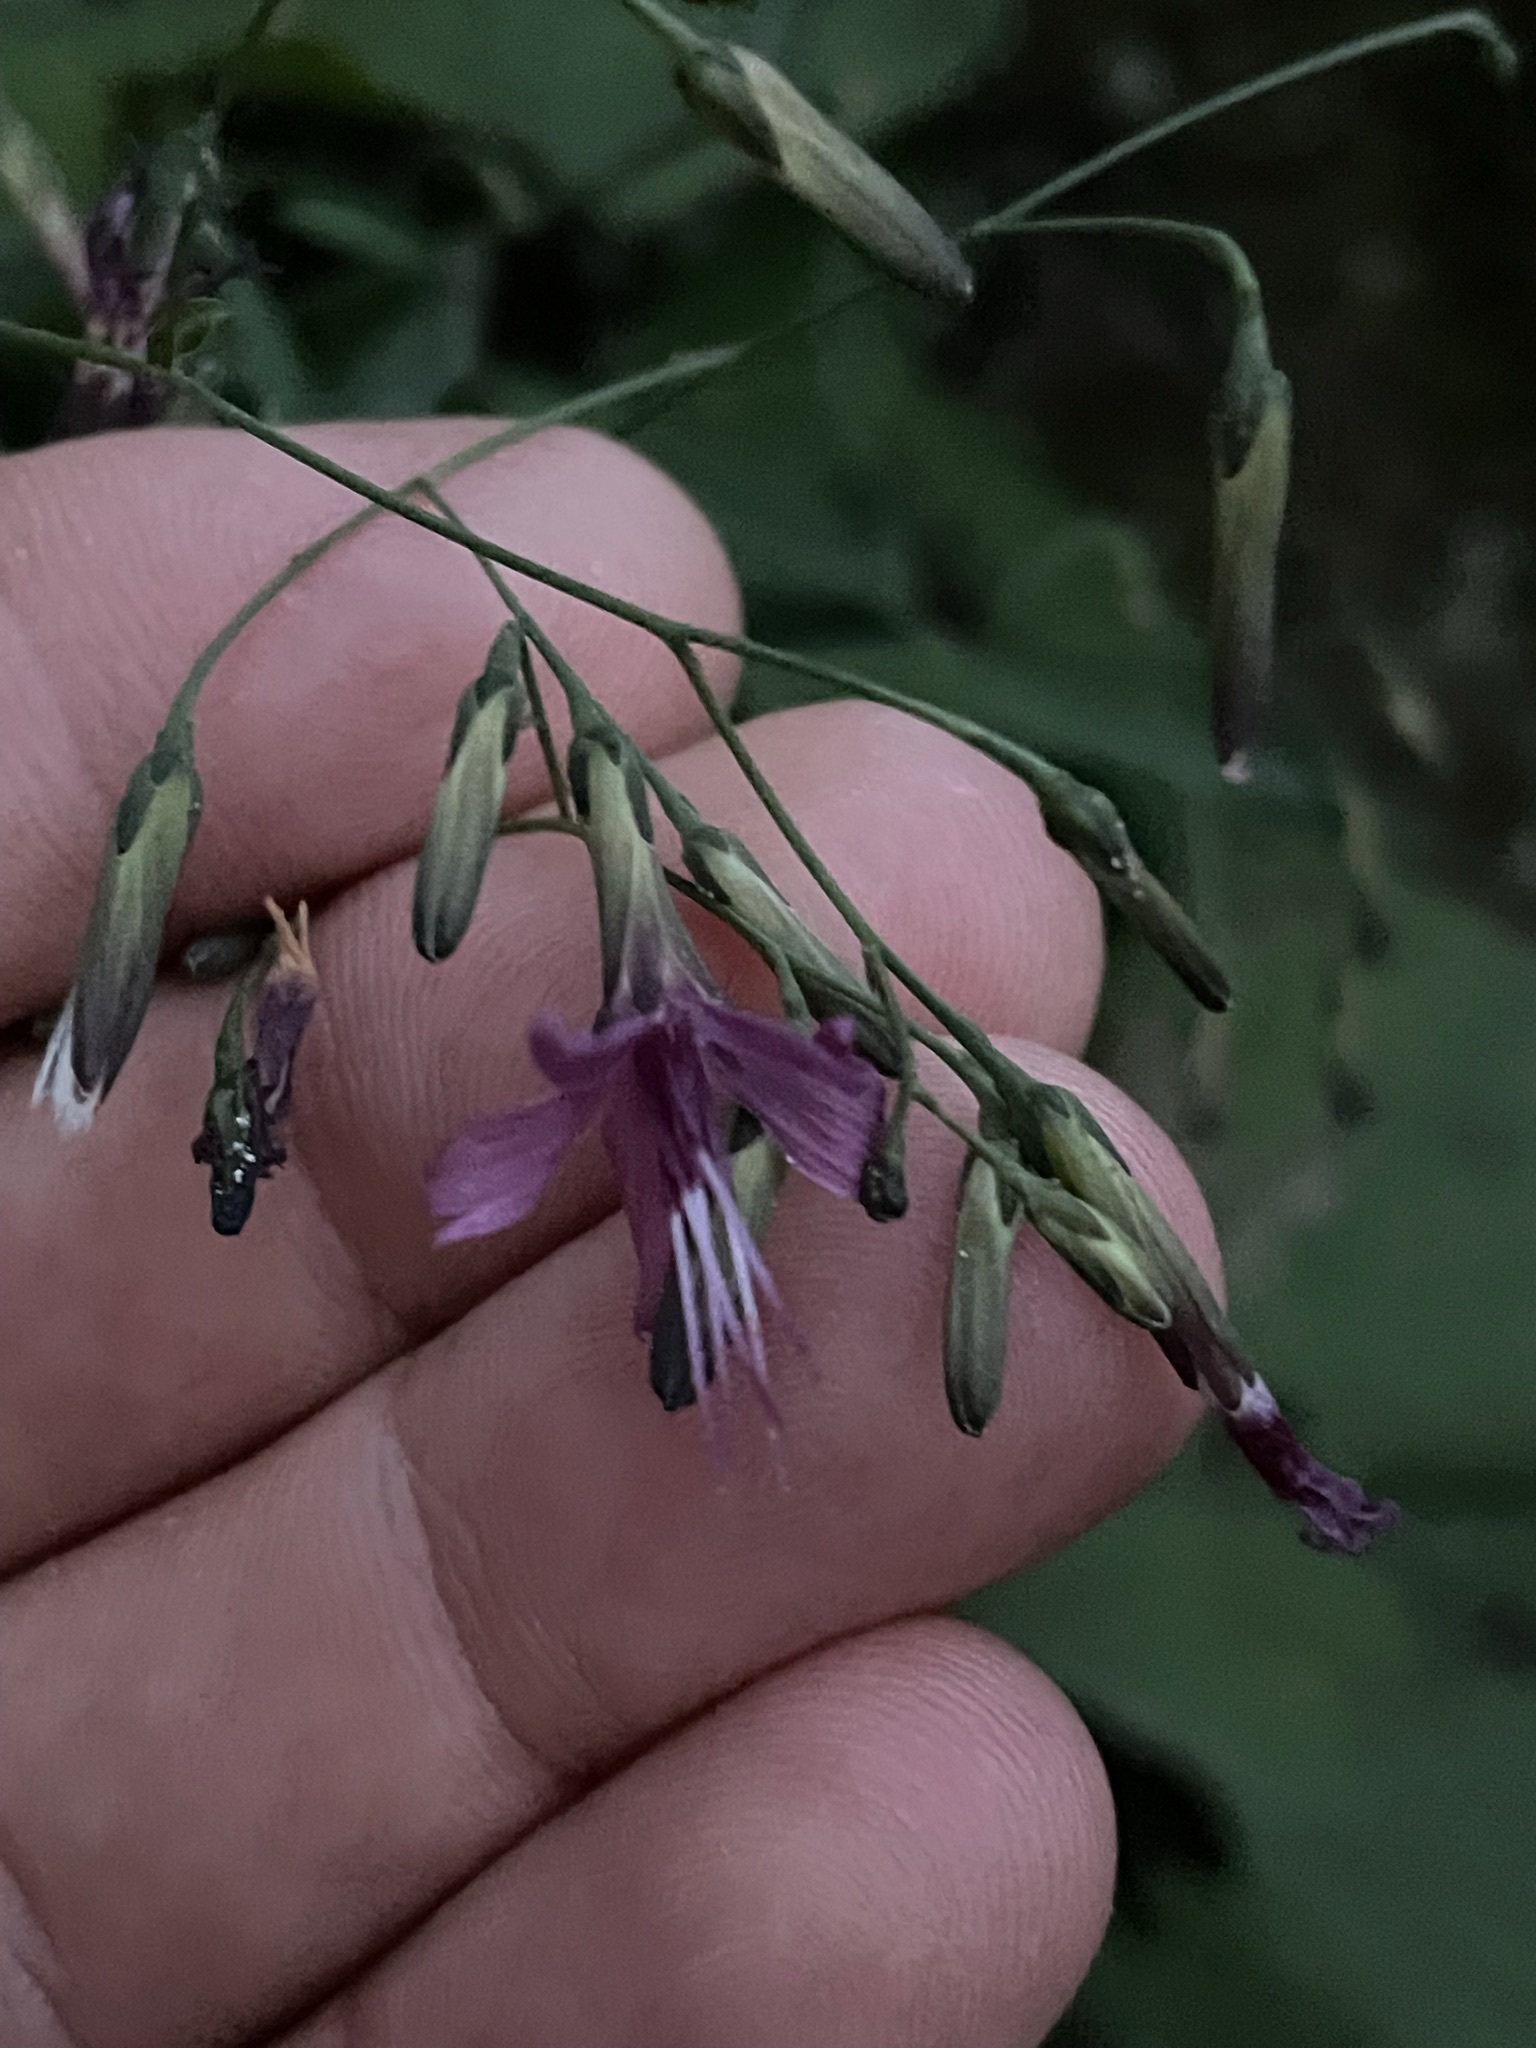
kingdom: Plantae
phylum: Tracheophyta
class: Magnoliopsida
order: Asterales
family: Asteraceae
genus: Prenanthes
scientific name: Prenanthes purpurea
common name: Purple lettuce
